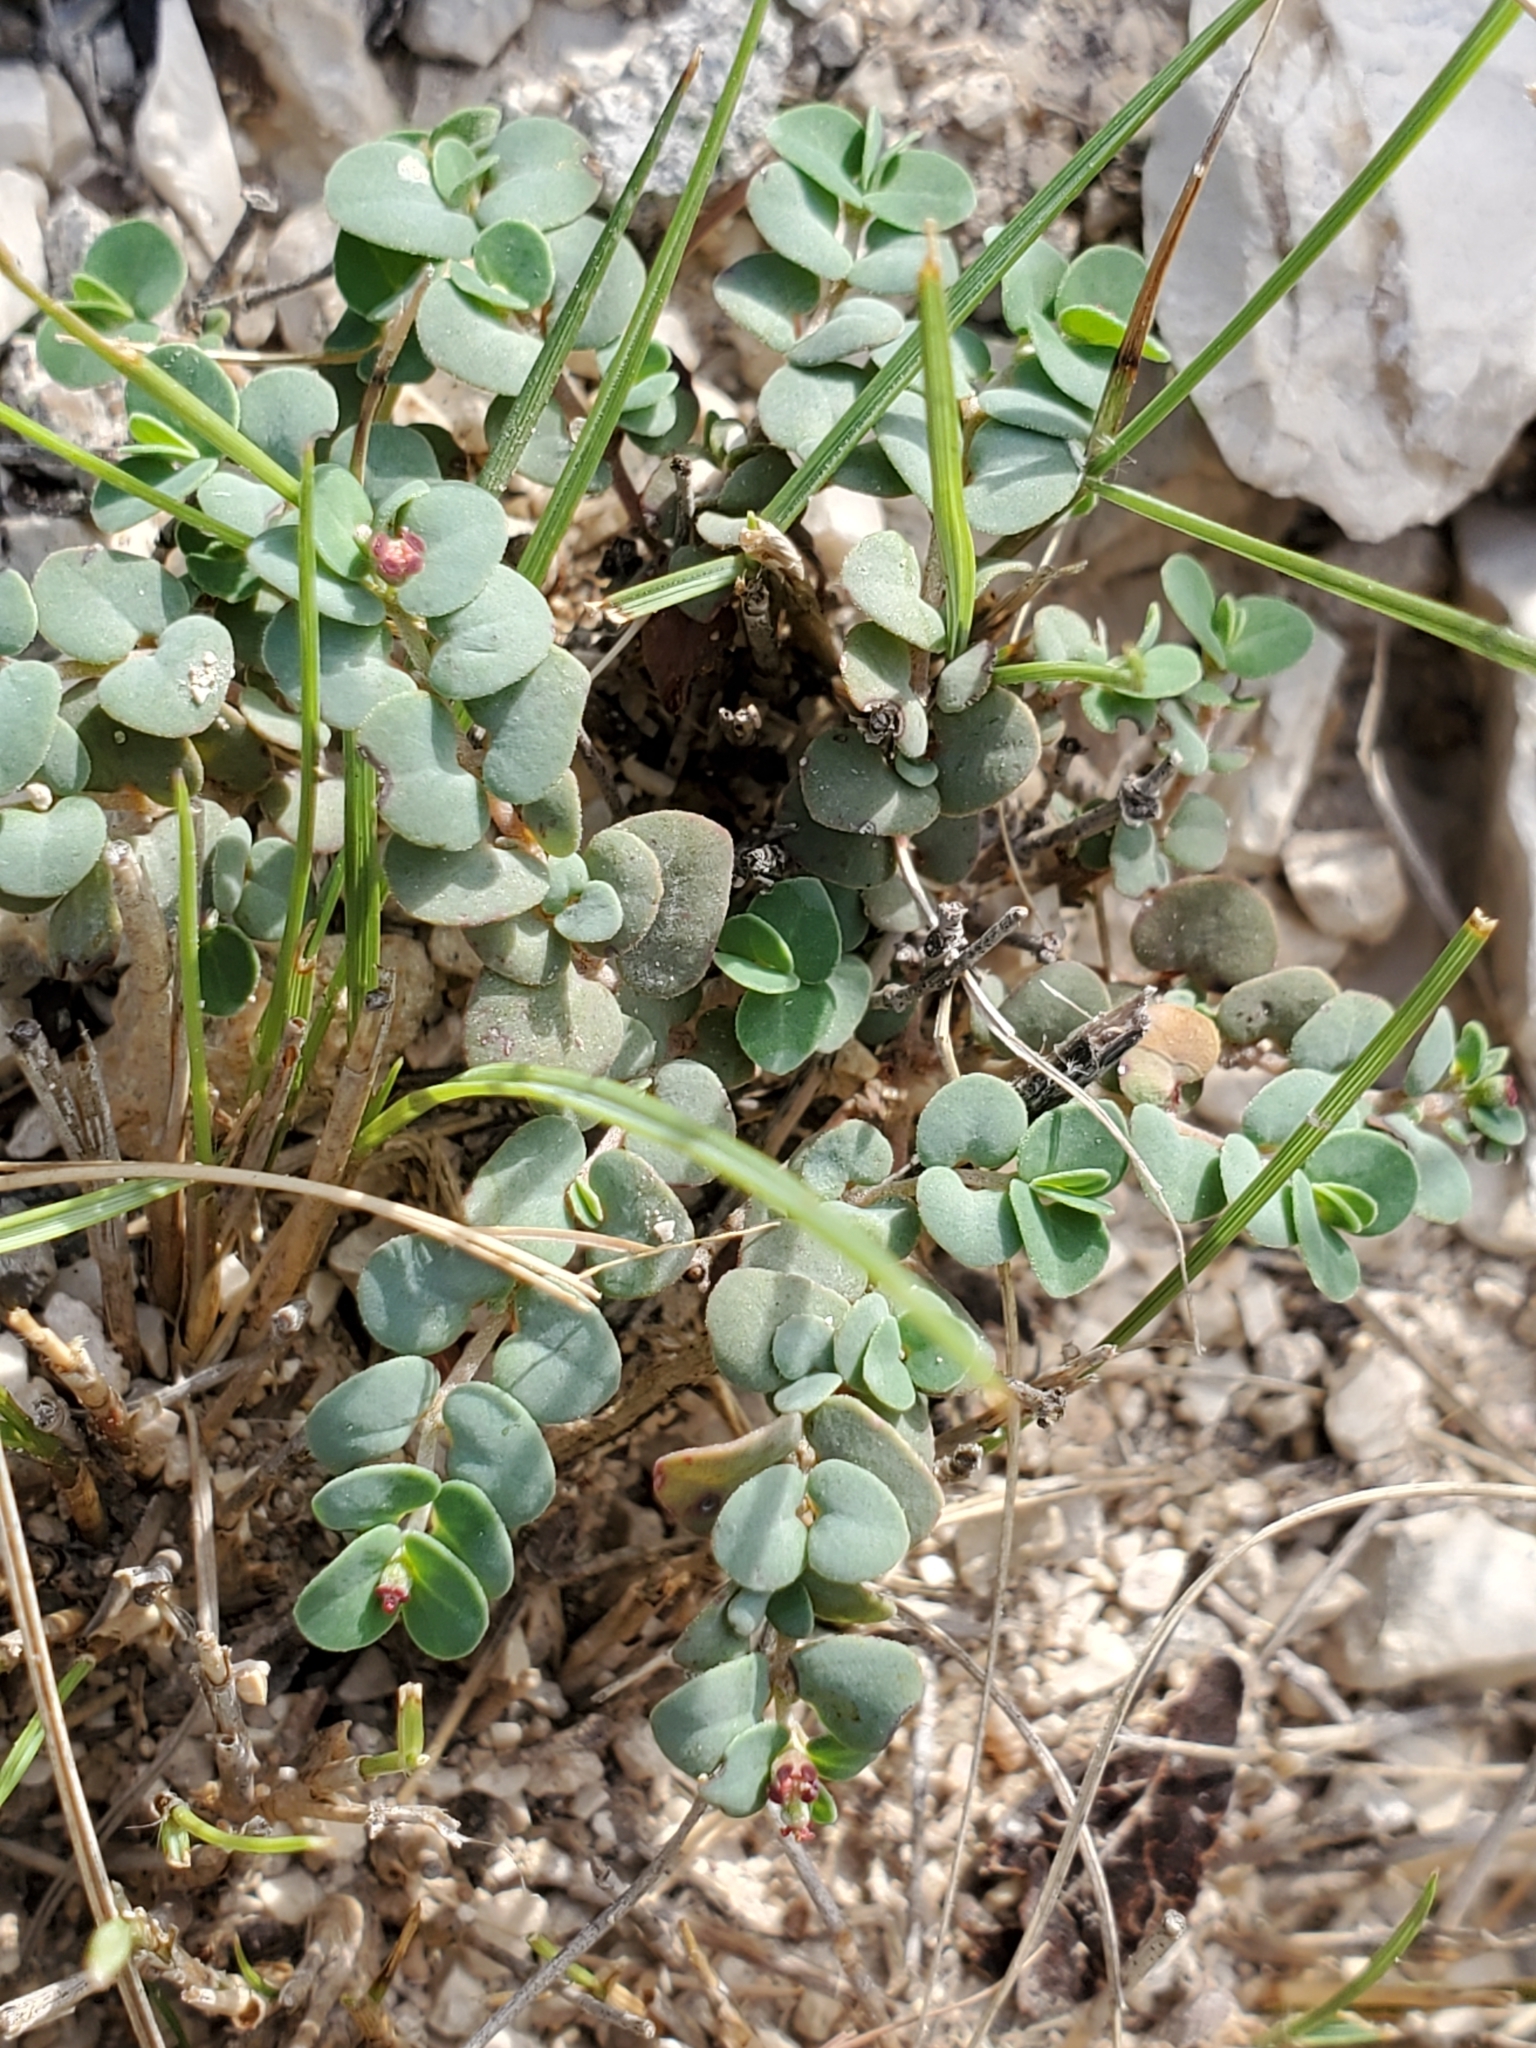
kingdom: Plantae
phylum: Tracheophyta
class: Magnoliopsida
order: Malpighiales
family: Euphorbiaceae
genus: Euphorbia
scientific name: Euphorbia cinerascens
